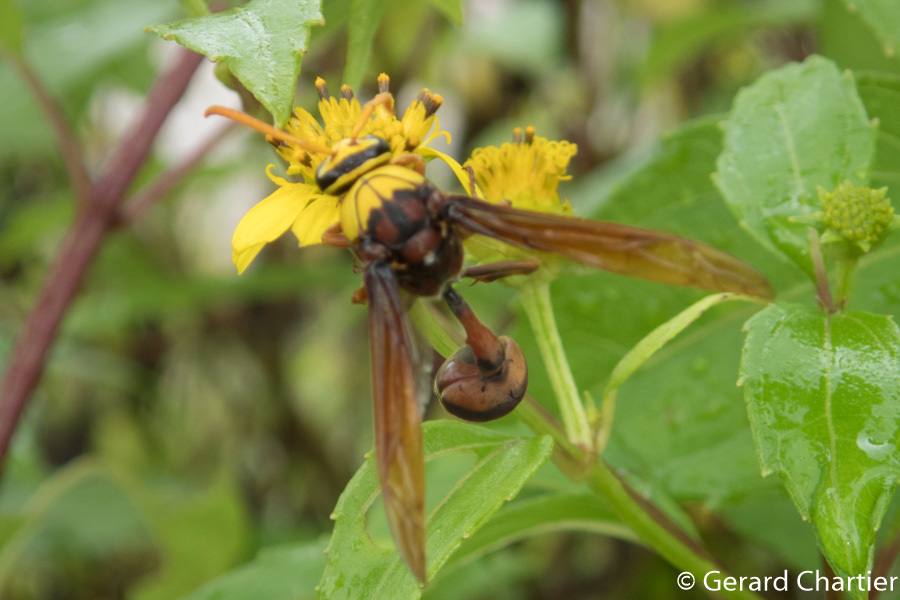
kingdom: Animalia
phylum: Arthropoda
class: Insecta
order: Hymenoptera
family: Eumenidae
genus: Delta
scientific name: Delta pyriforme
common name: Wasp
